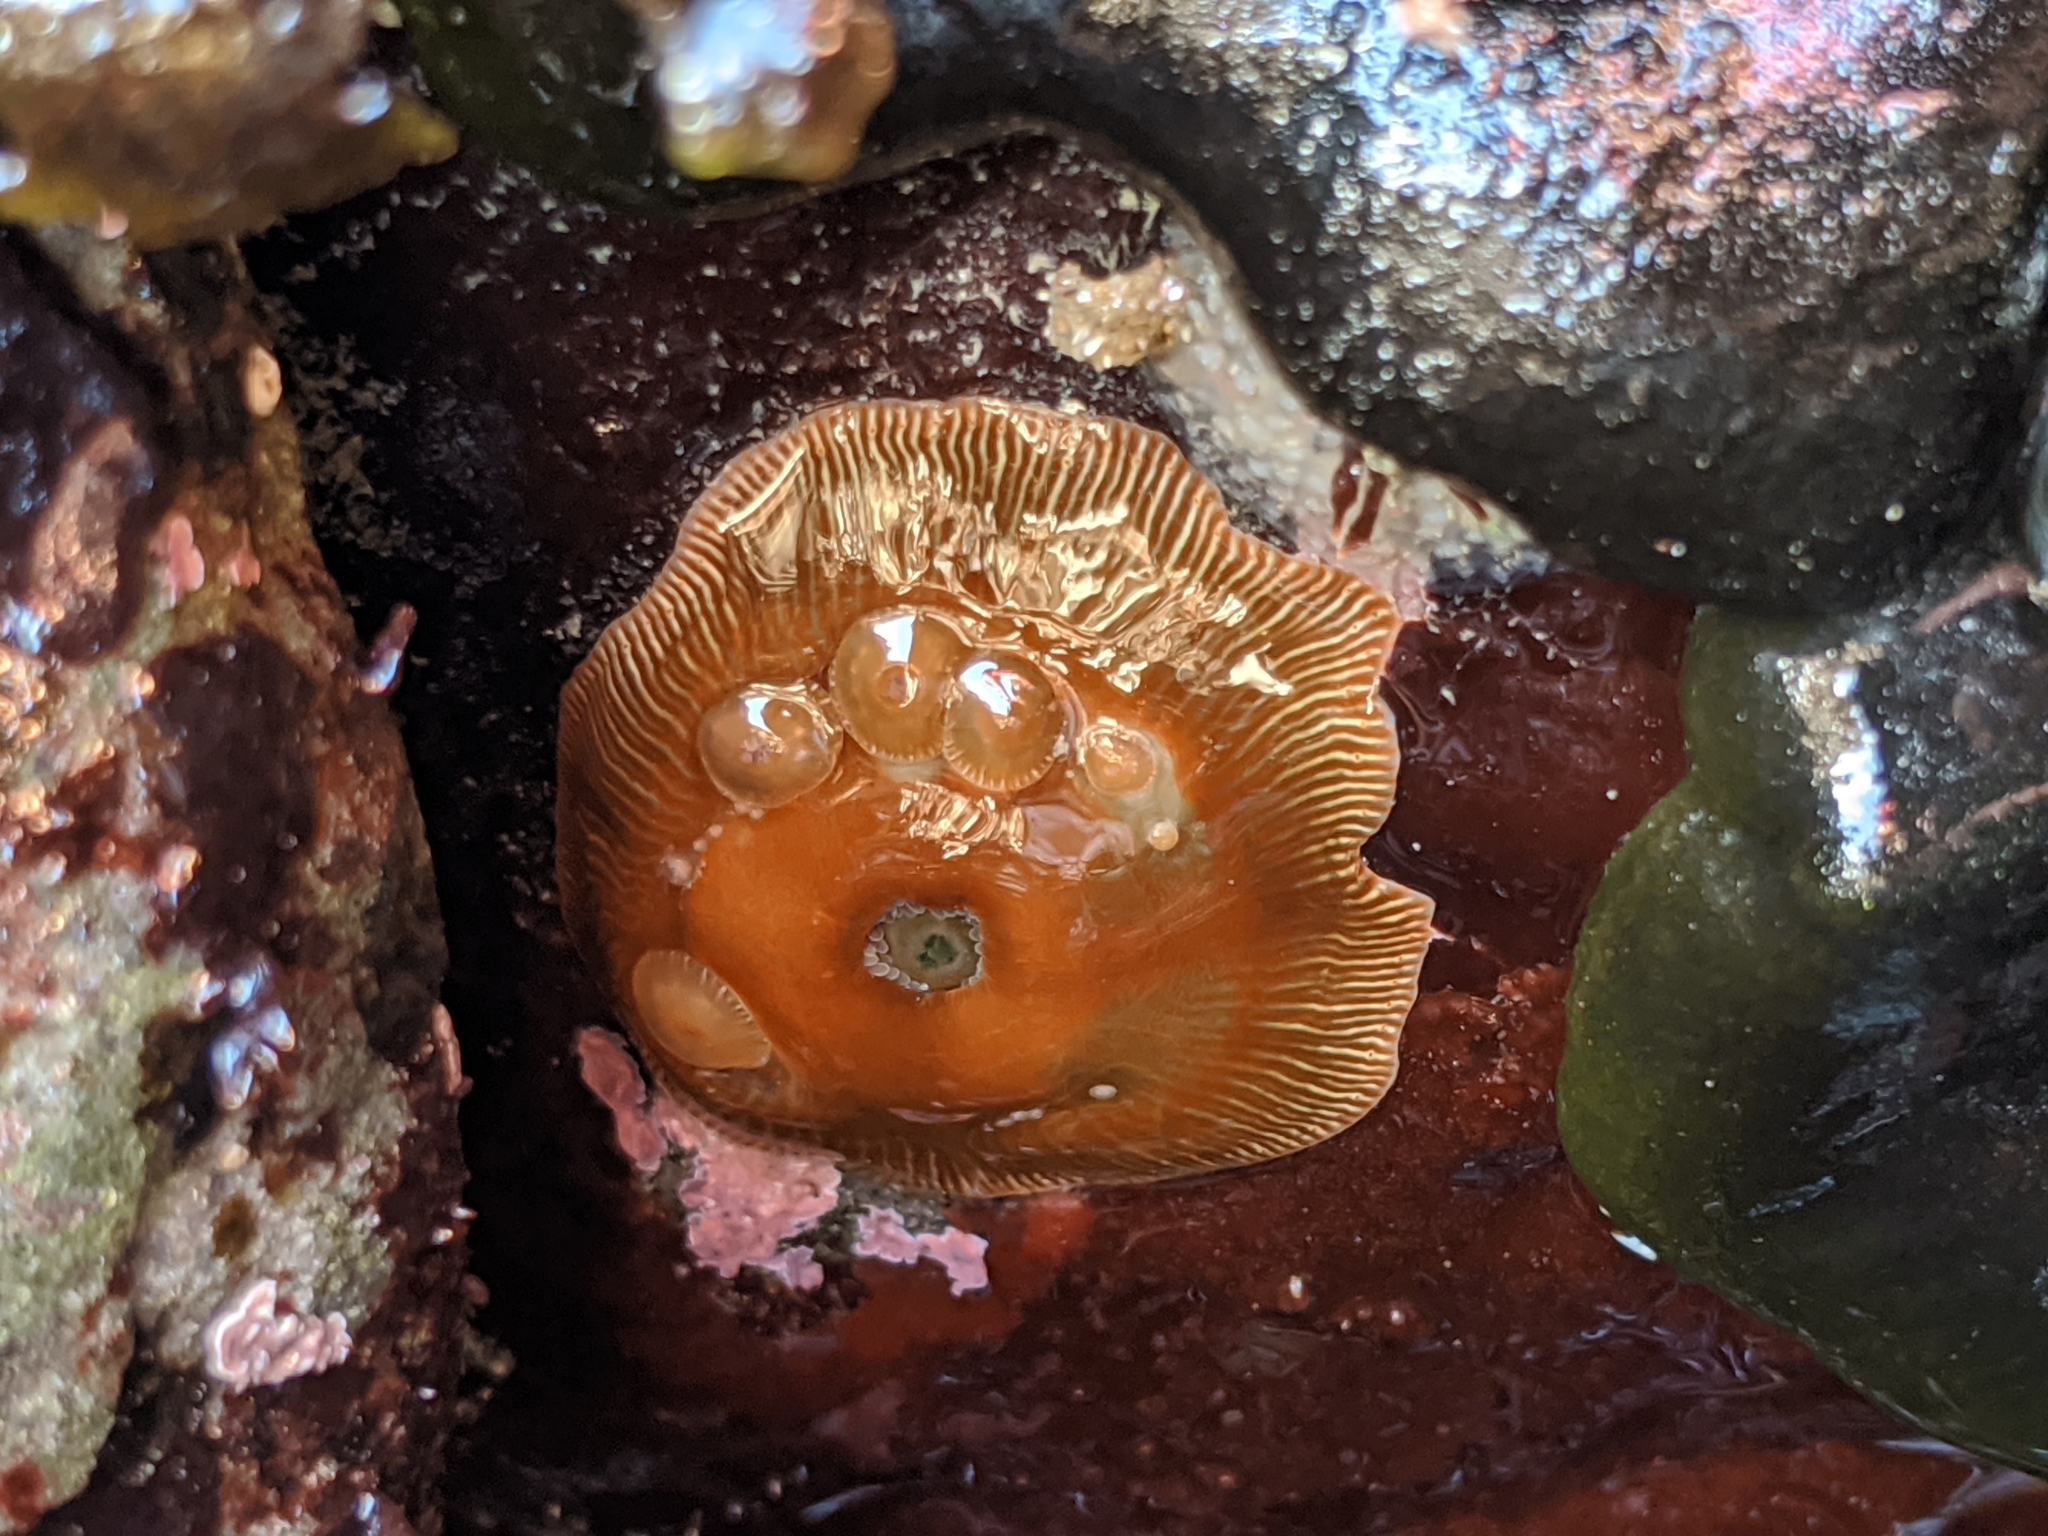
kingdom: Animalia
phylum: Cnidaria
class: Anthozoa
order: Actiniaria
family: Actiniidae
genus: Epiactis
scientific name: Epiactis prolifera
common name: Brooding anemone
